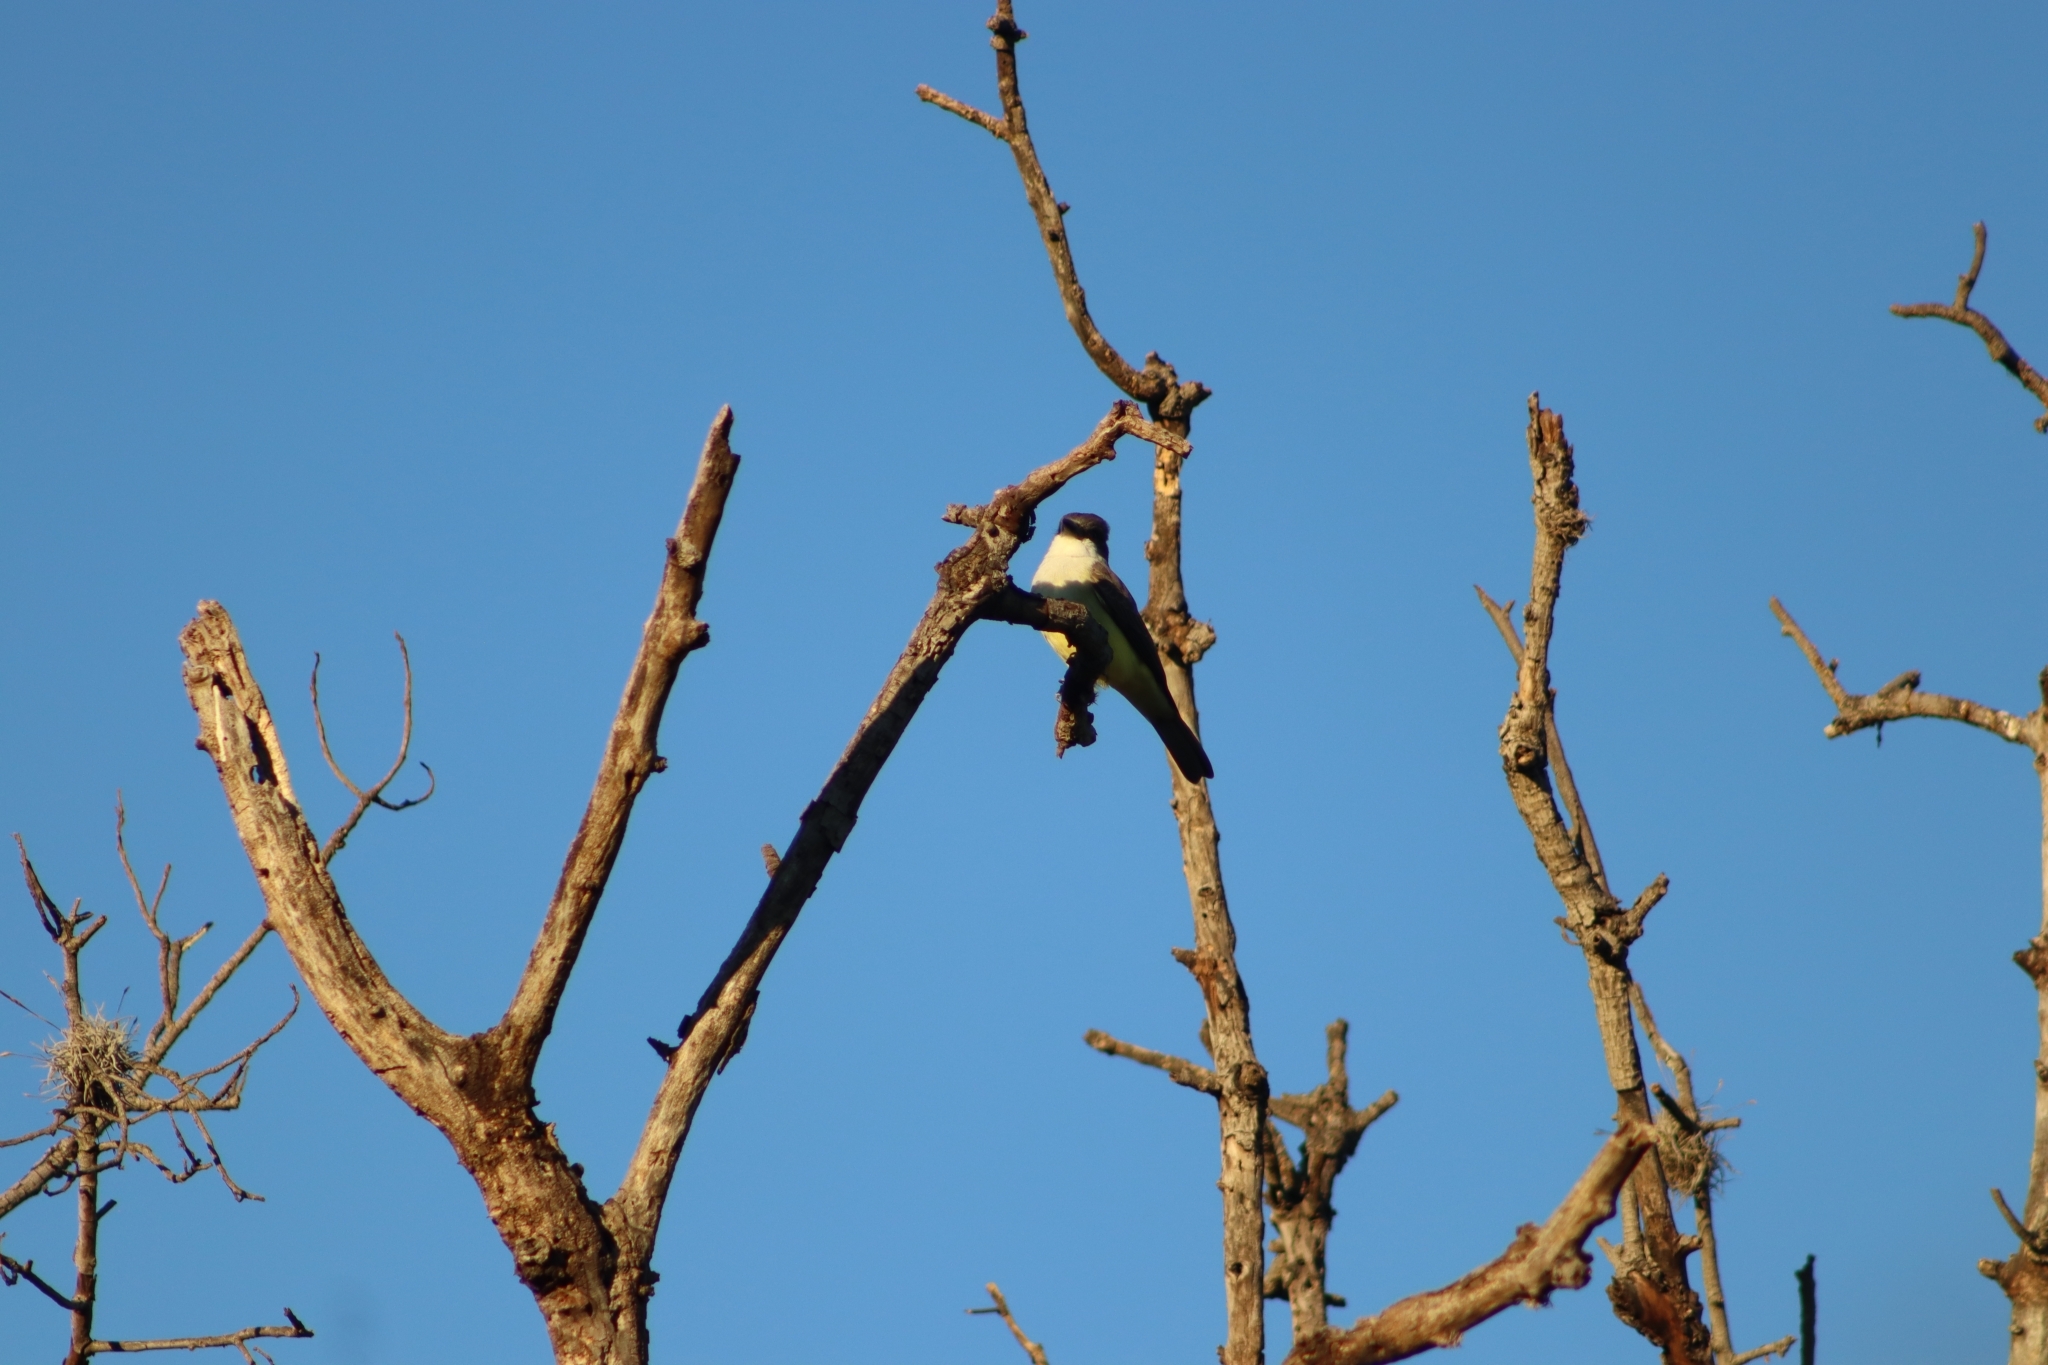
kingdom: Animalia
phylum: Chordata
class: Aves
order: Passeriformes
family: Tyrannidae
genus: Tyrannus
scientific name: Tyrannus crassirostris
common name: Thick-billed kingbird
